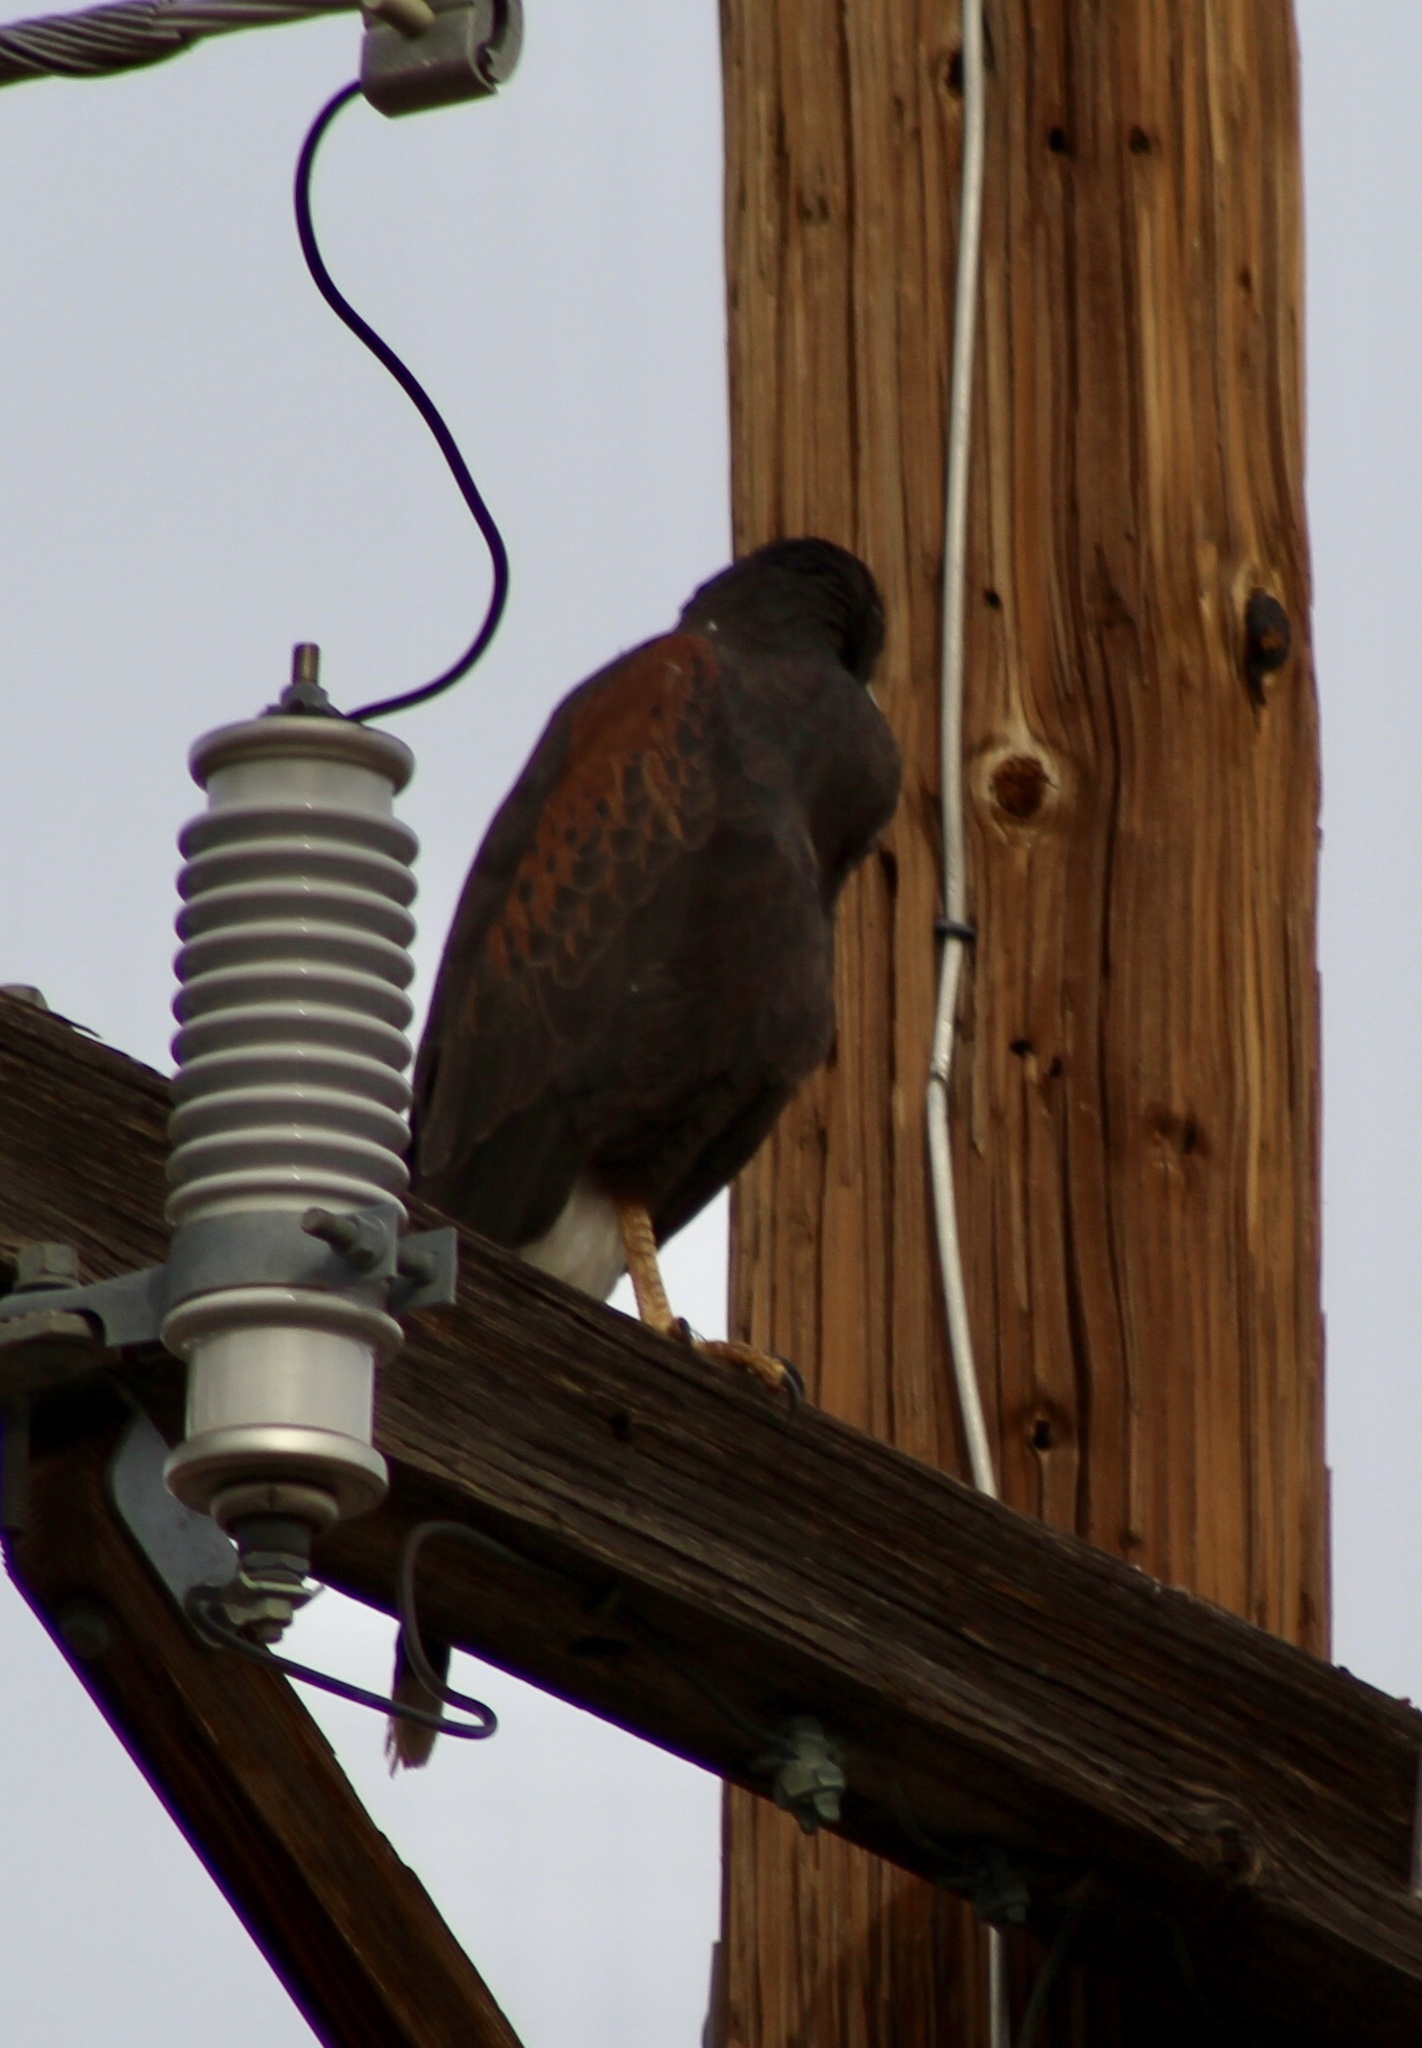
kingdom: Animalia
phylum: Chordata
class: Aves
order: Accipitriformes
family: Accipitridae
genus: Parabuteo
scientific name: Parabuteo unicinctus
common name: Harris's hawk
